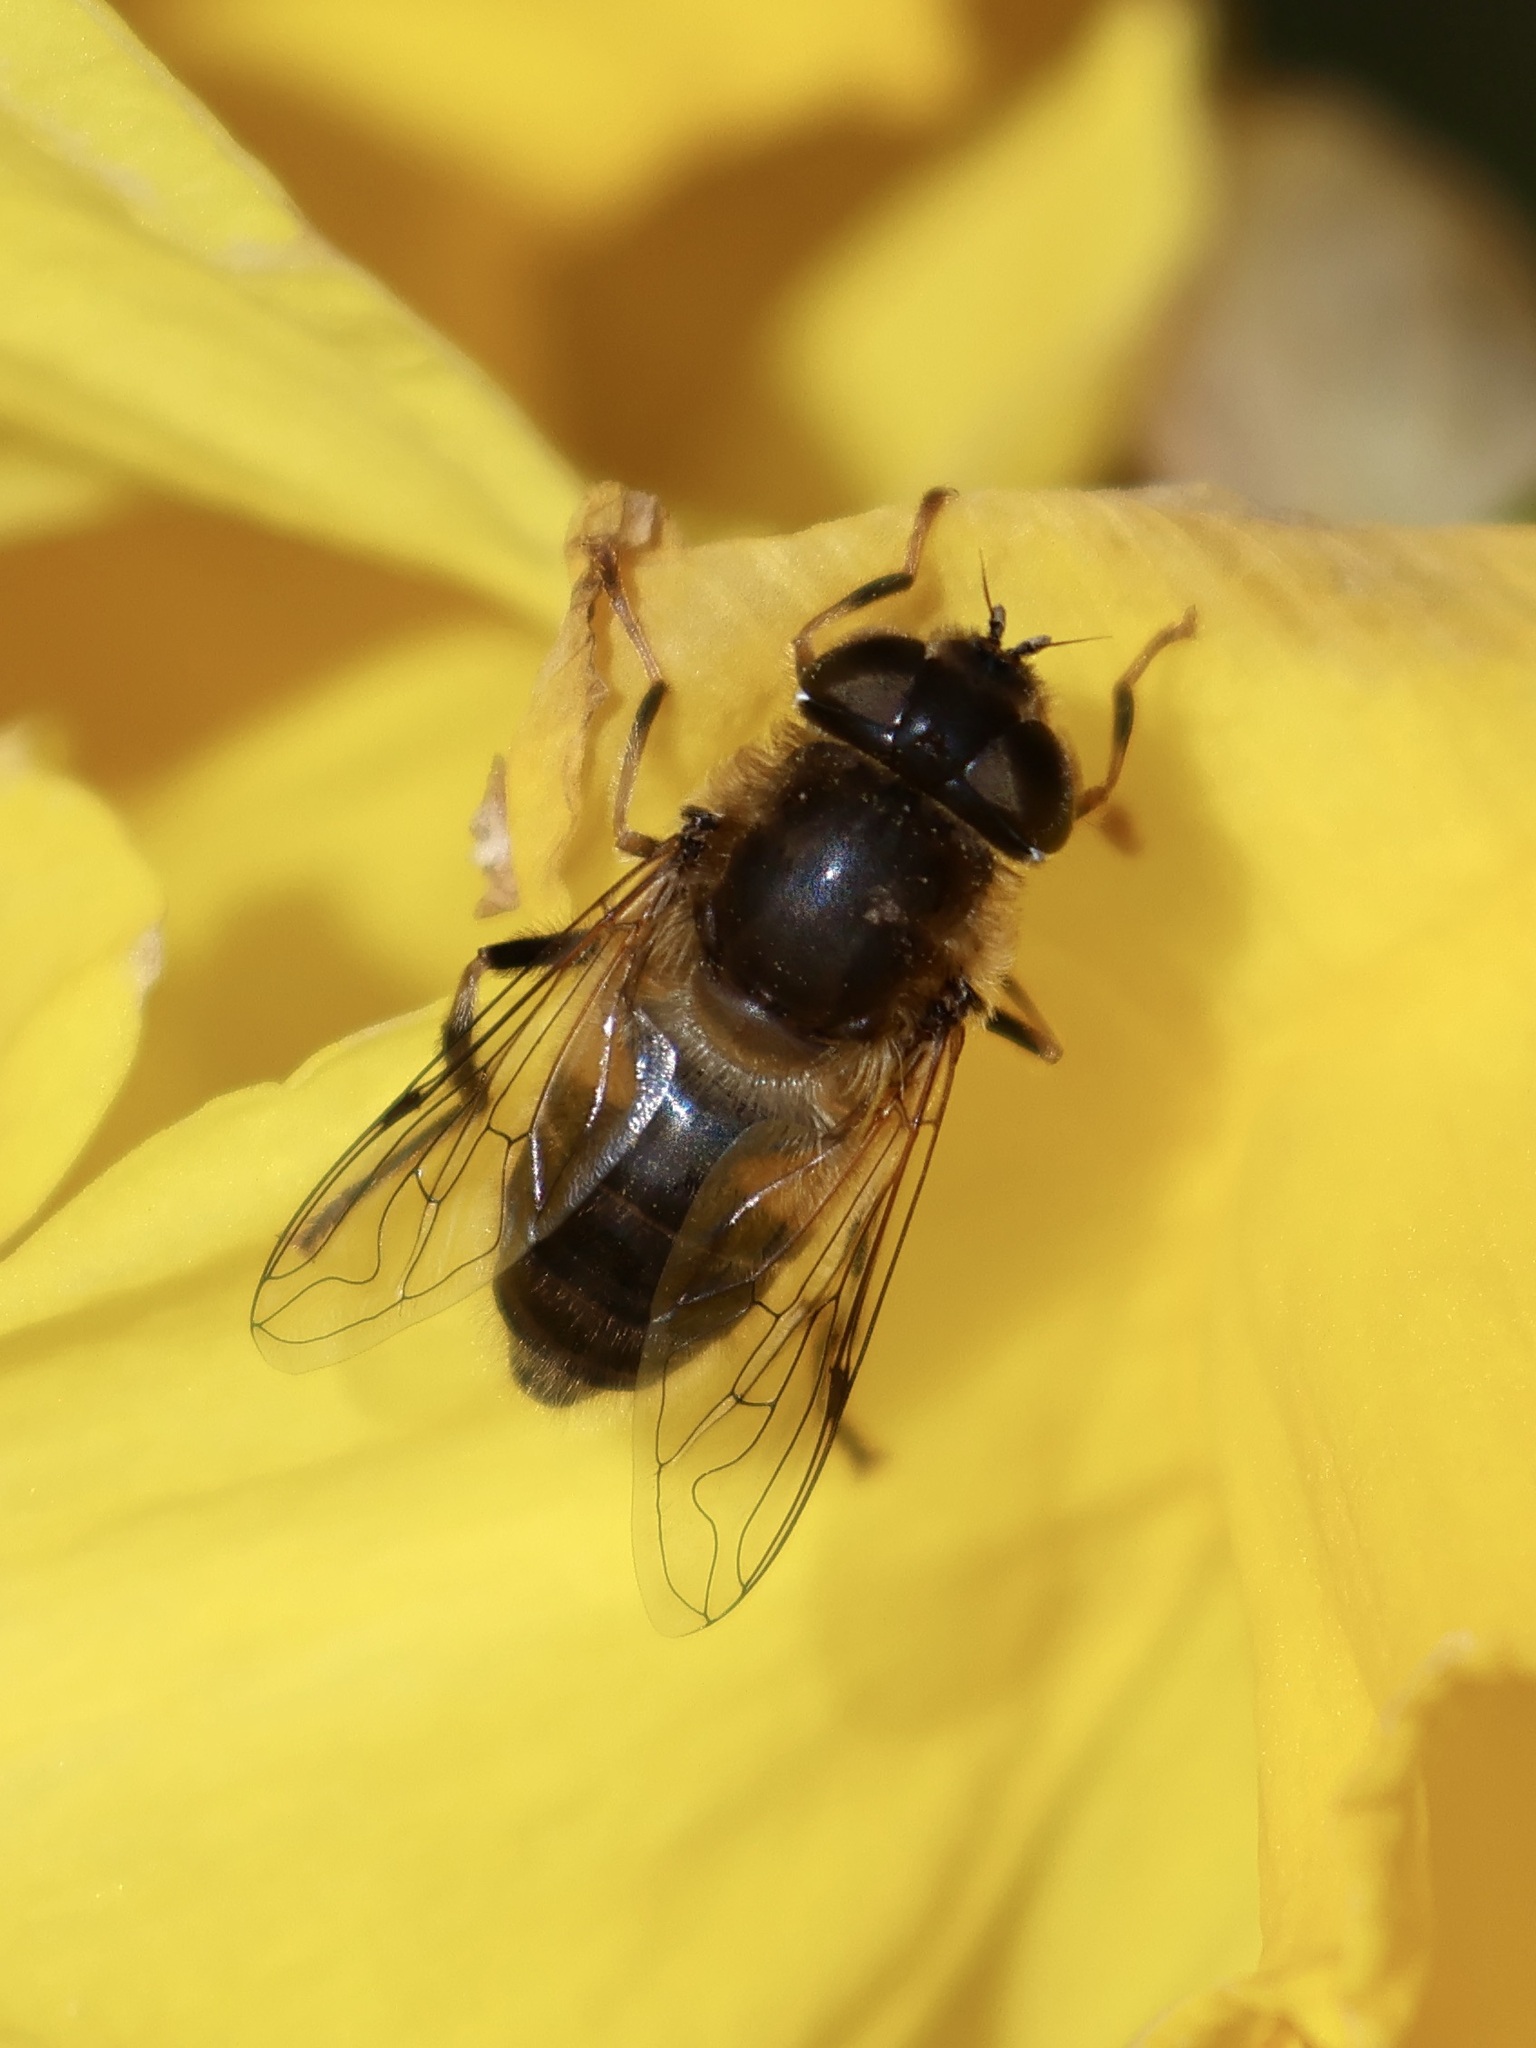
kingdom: Animalia
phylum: Arthropoda
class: Insecta
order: Diptera
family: Syrphidae
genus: Eristalis
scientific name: Eristalis pertinax
